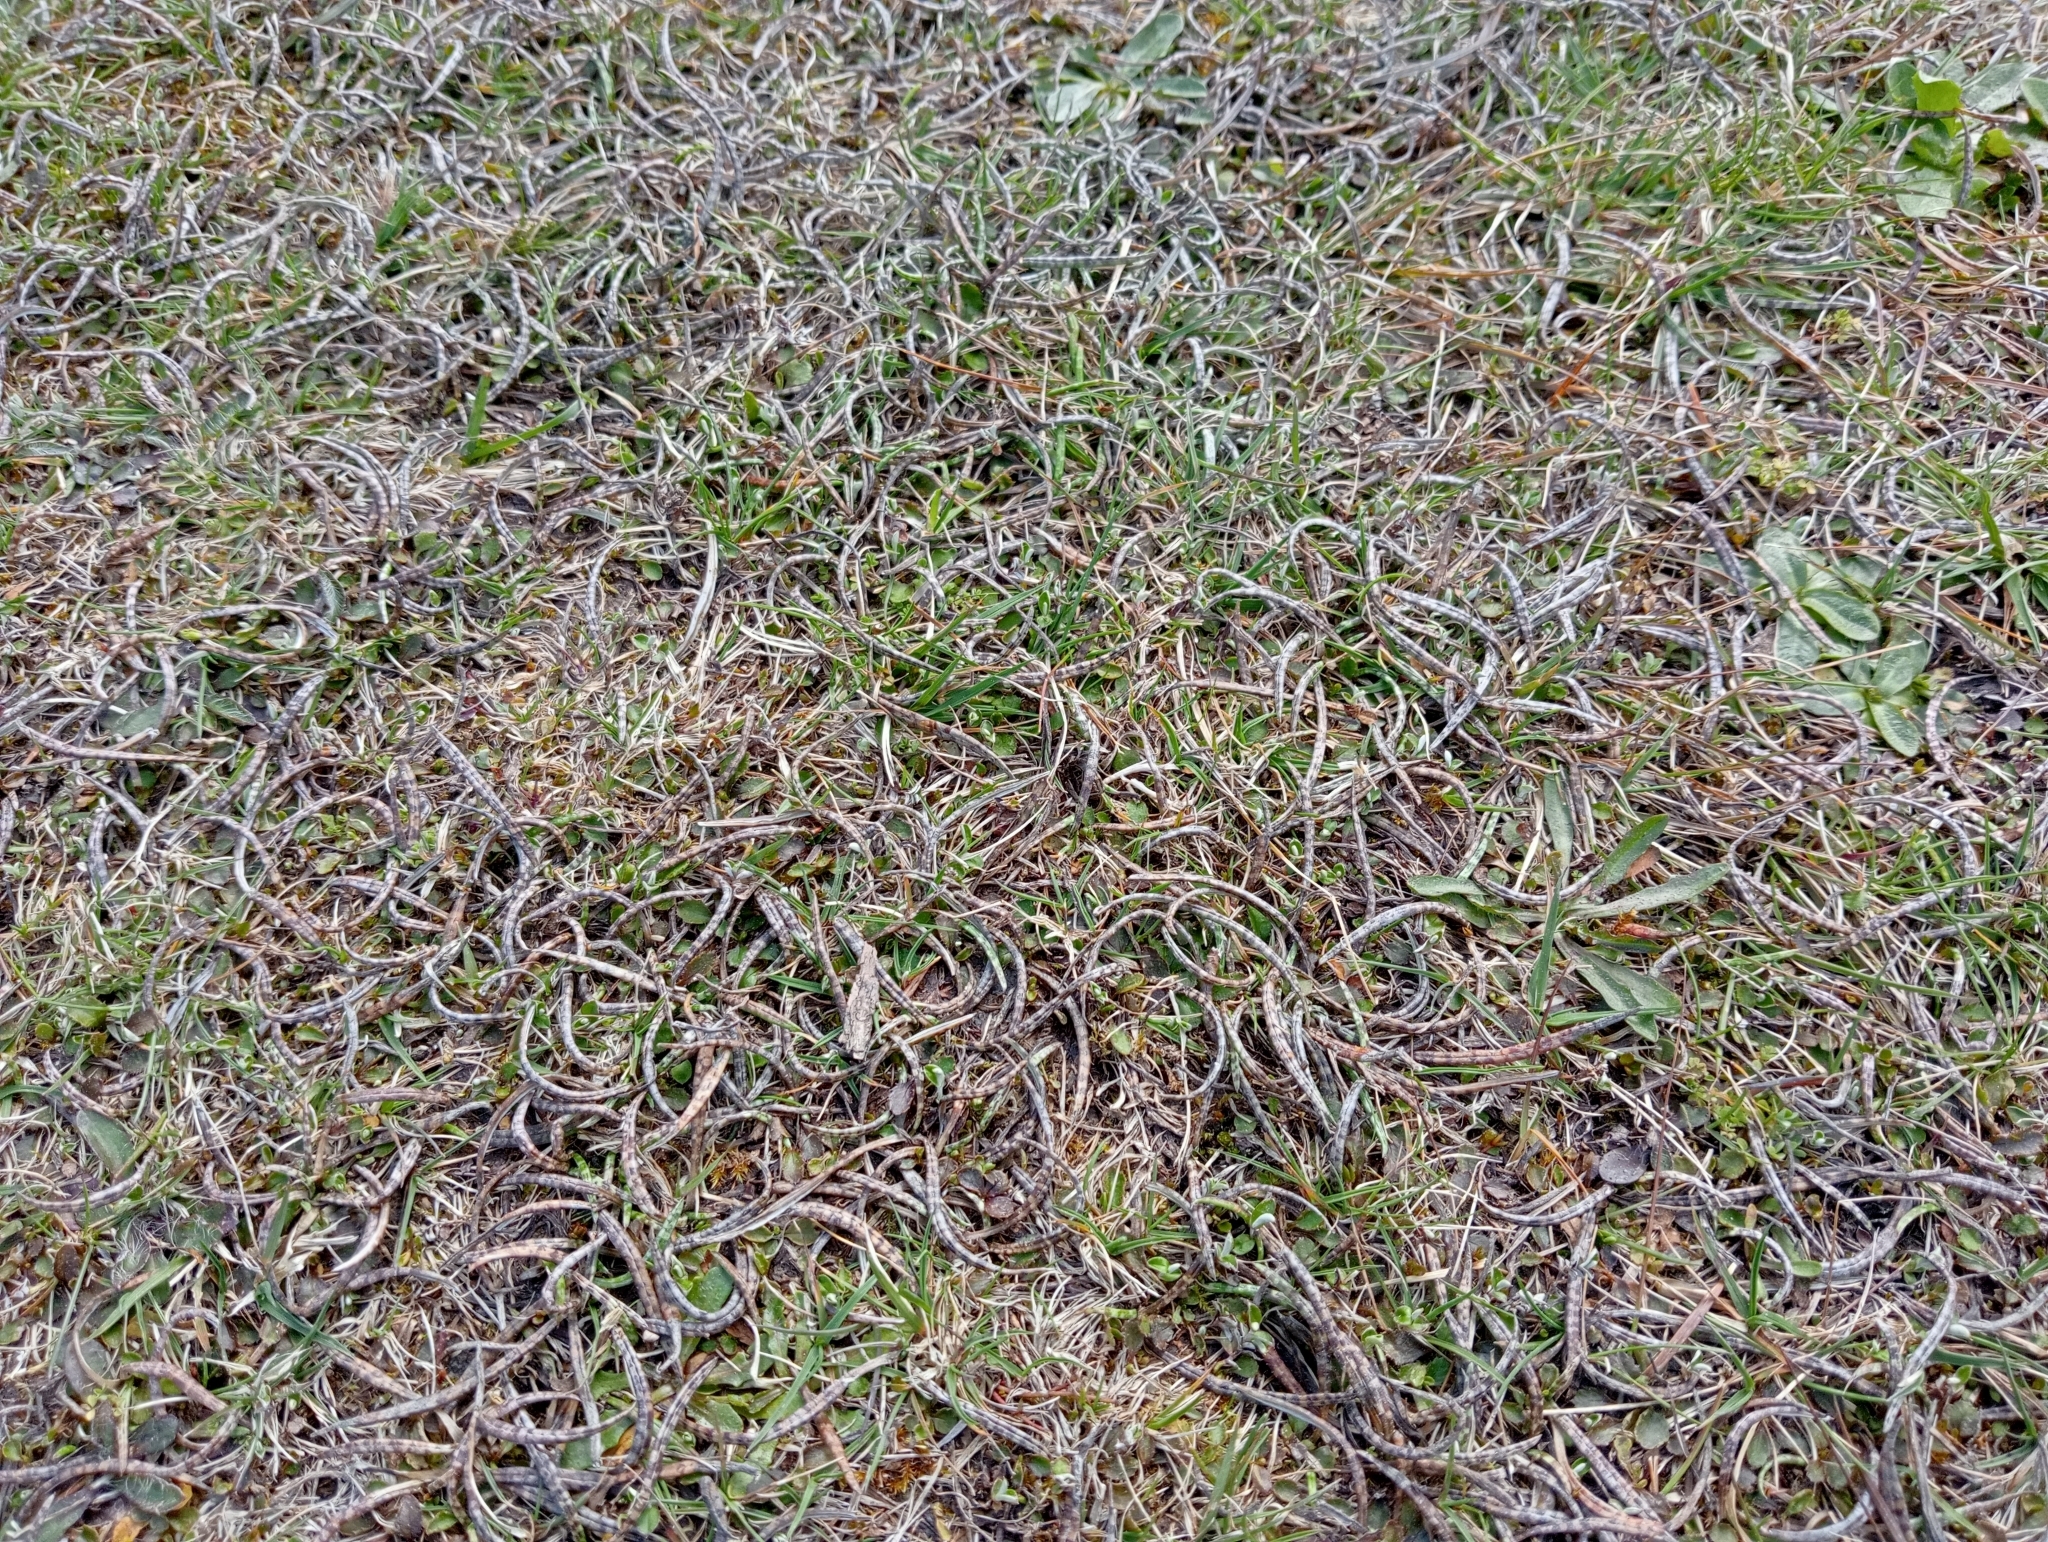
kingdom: Plantae
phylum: Tracheophyta
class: Magnoliopsida
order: Asterales
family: Asteraceae
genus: Celmisia
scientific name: Celmisia gracilenta
